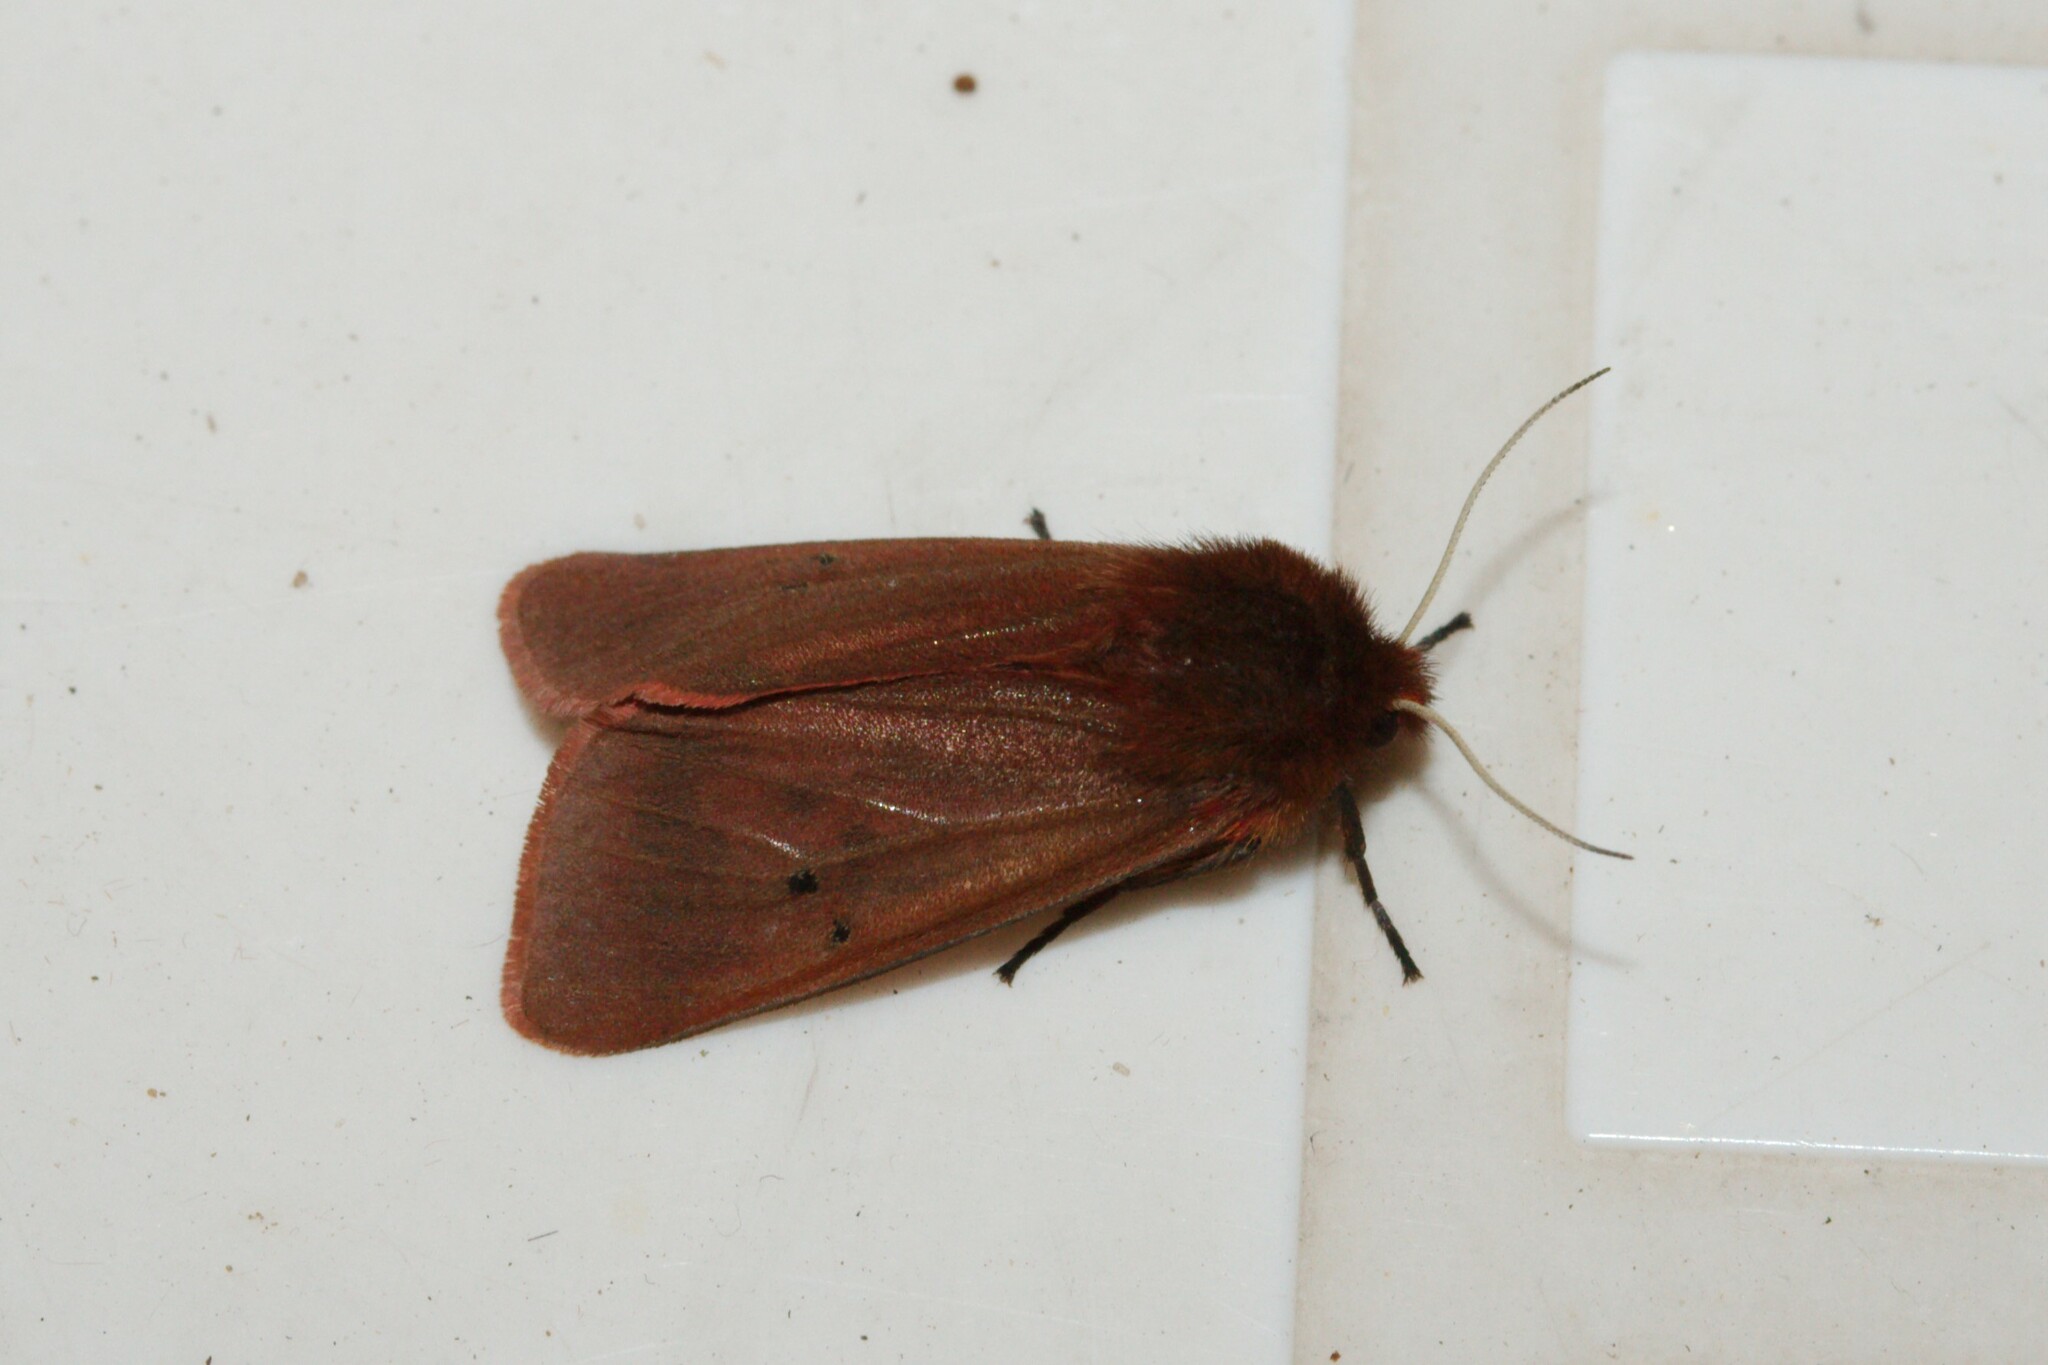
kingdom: Animalia
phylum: Arthropoda
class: Insecta
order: Lepidoptera
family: Erebidae
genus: Phragmatobia
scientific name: Phragmatobia fuliginosa
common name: Ruby tiger
